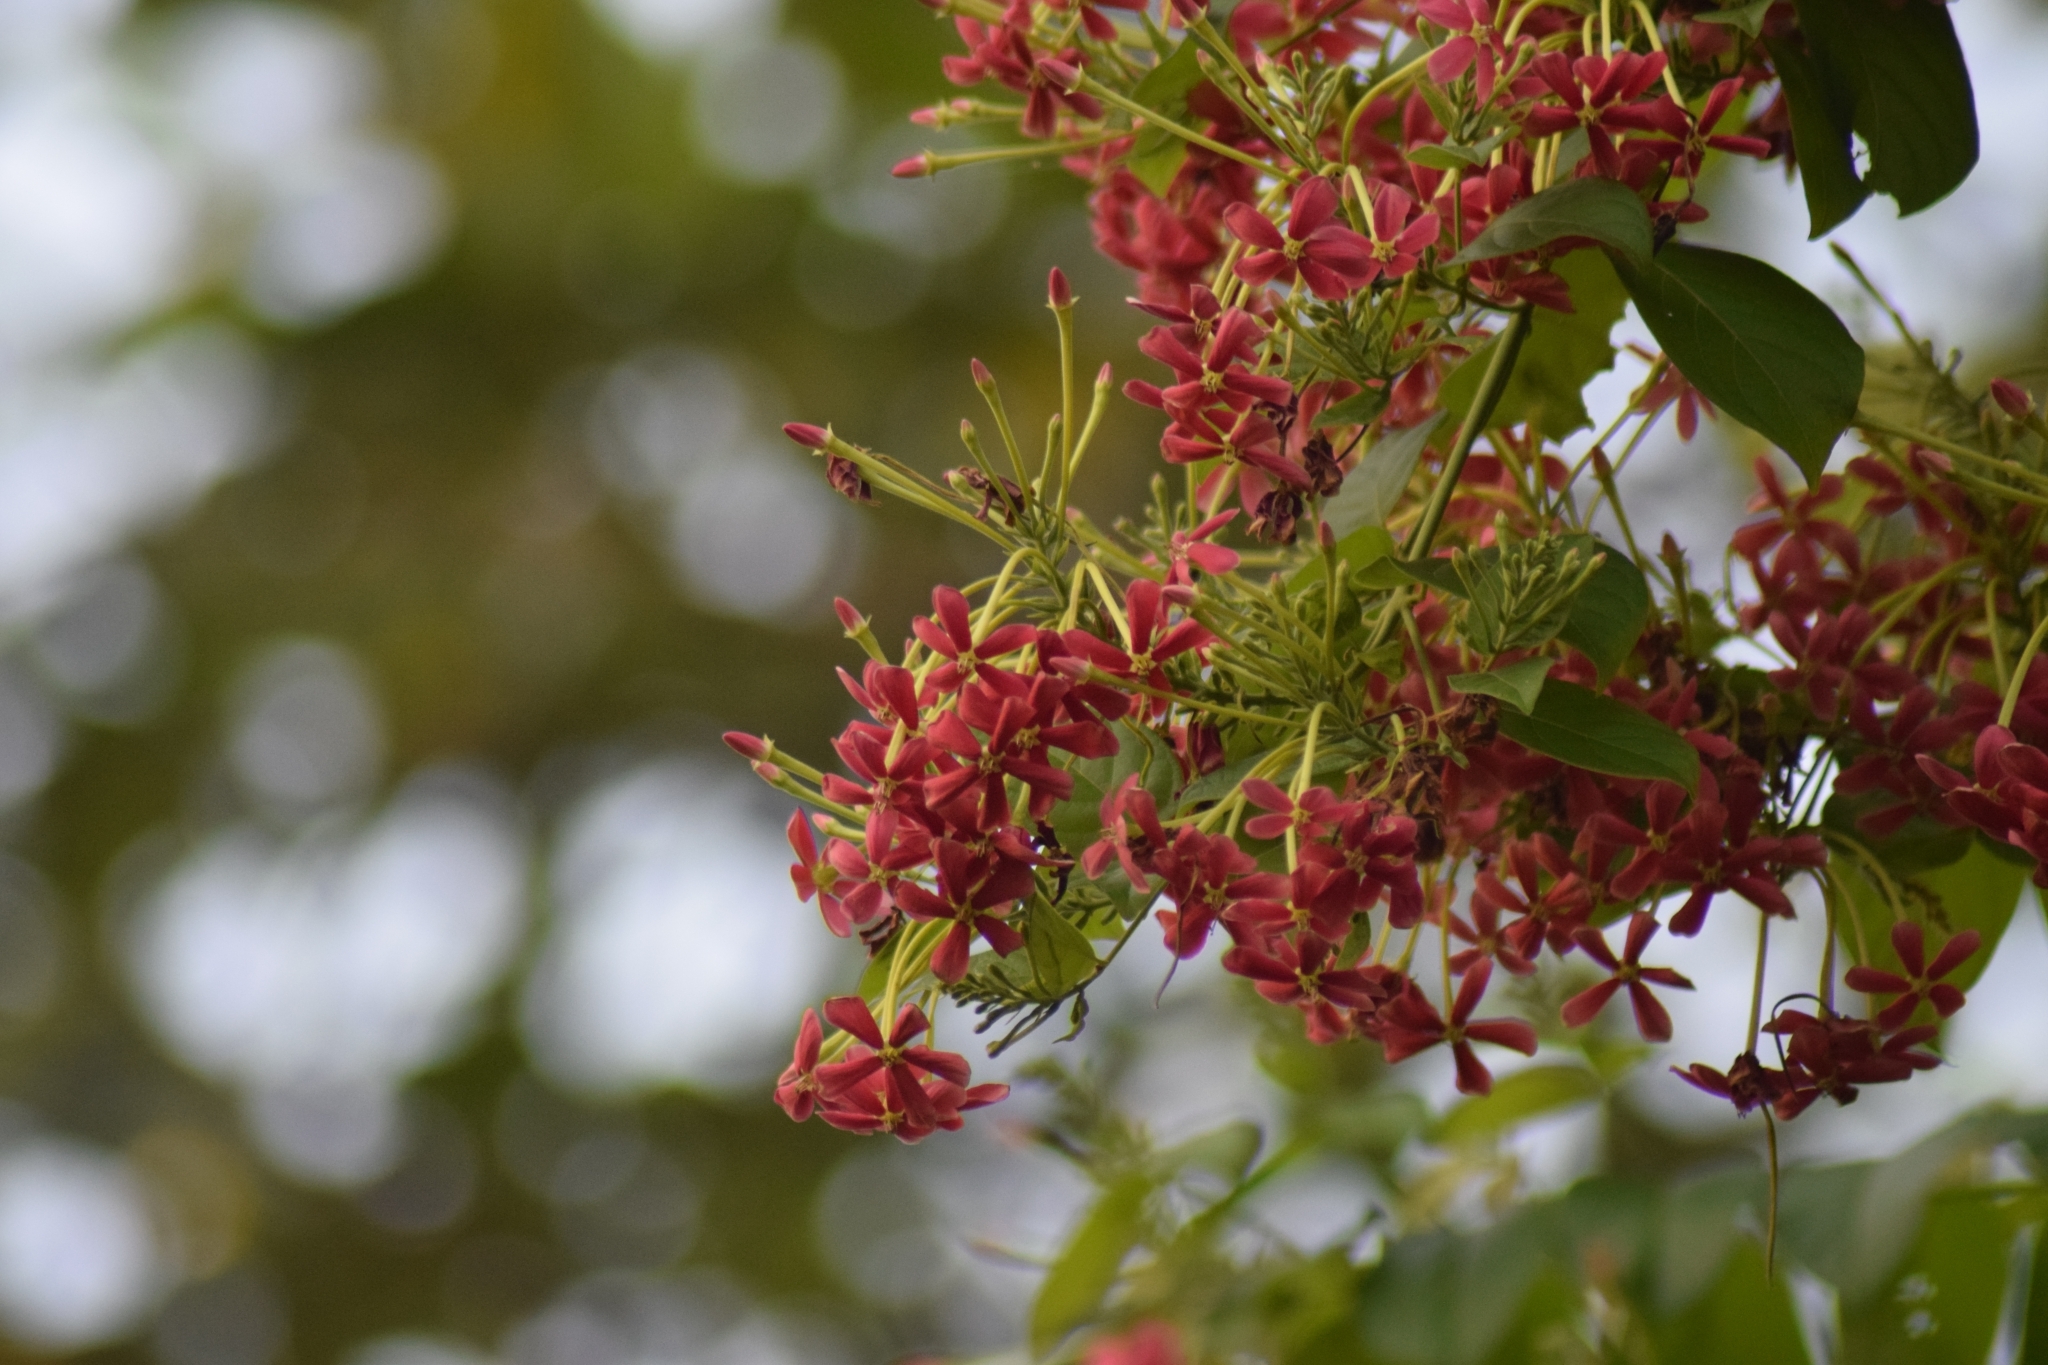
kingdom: Plantae
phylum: Tracheophyta
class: Magnoliopsida
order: Myrtales
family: Combretaceae
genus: Combretum
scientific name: Combretum indicum
